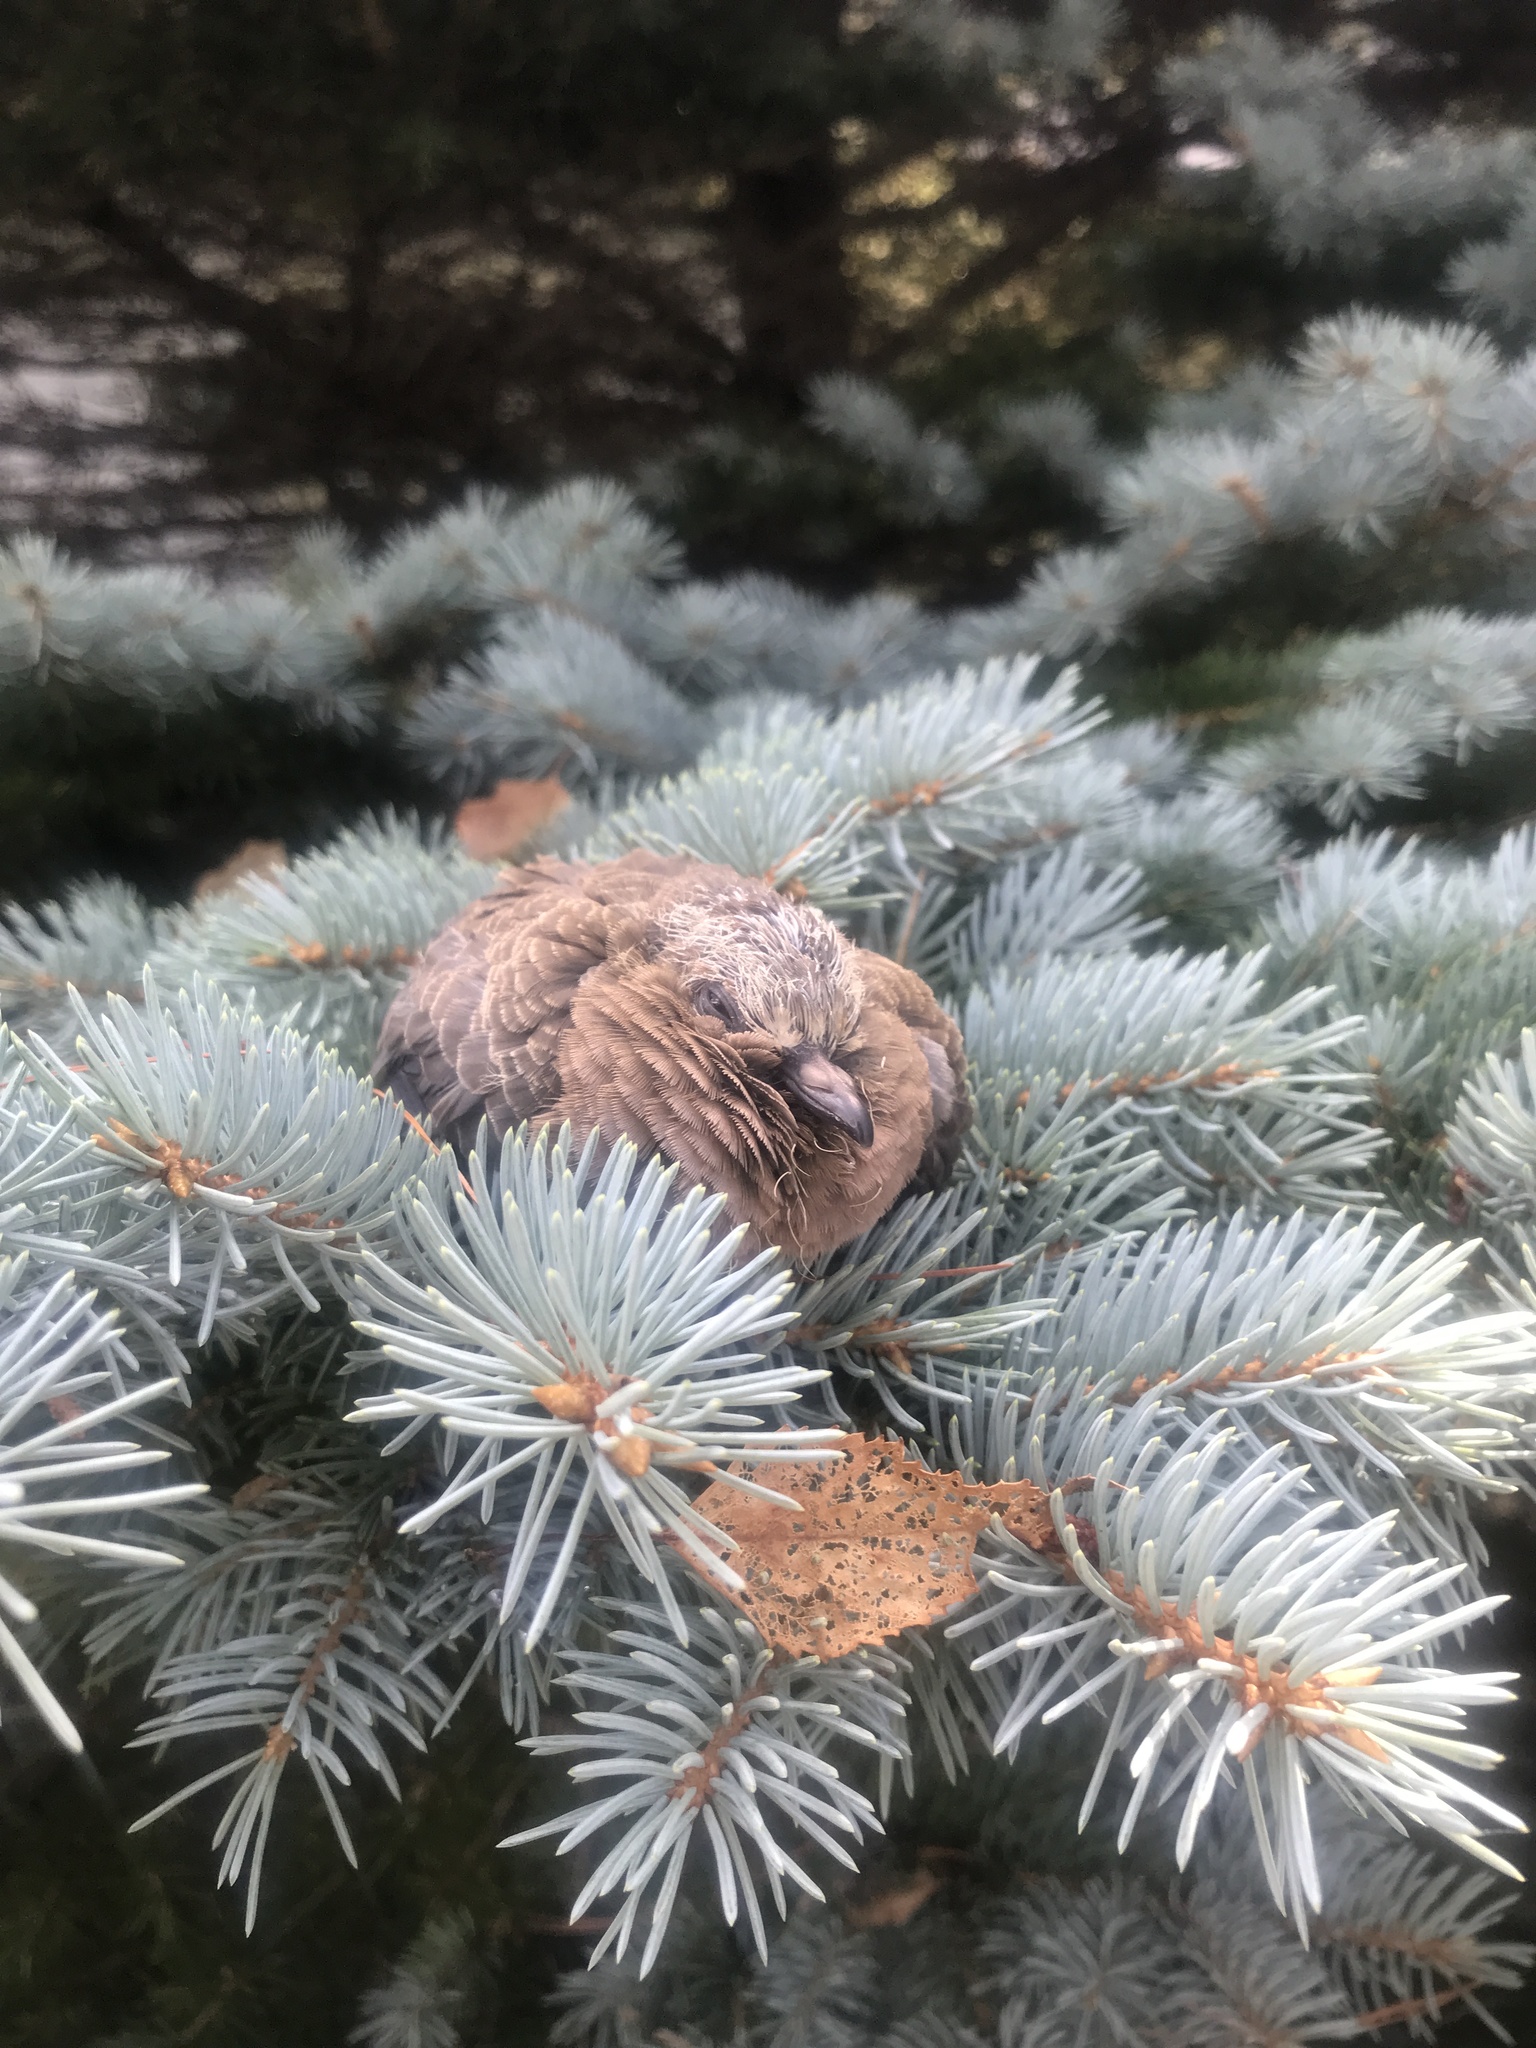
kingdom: Animalia
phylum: Chordata
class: Aves
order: Columbiformes
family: Columbidae
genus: Zenaida
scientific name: Zenaida macroura
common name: Mourning dove
